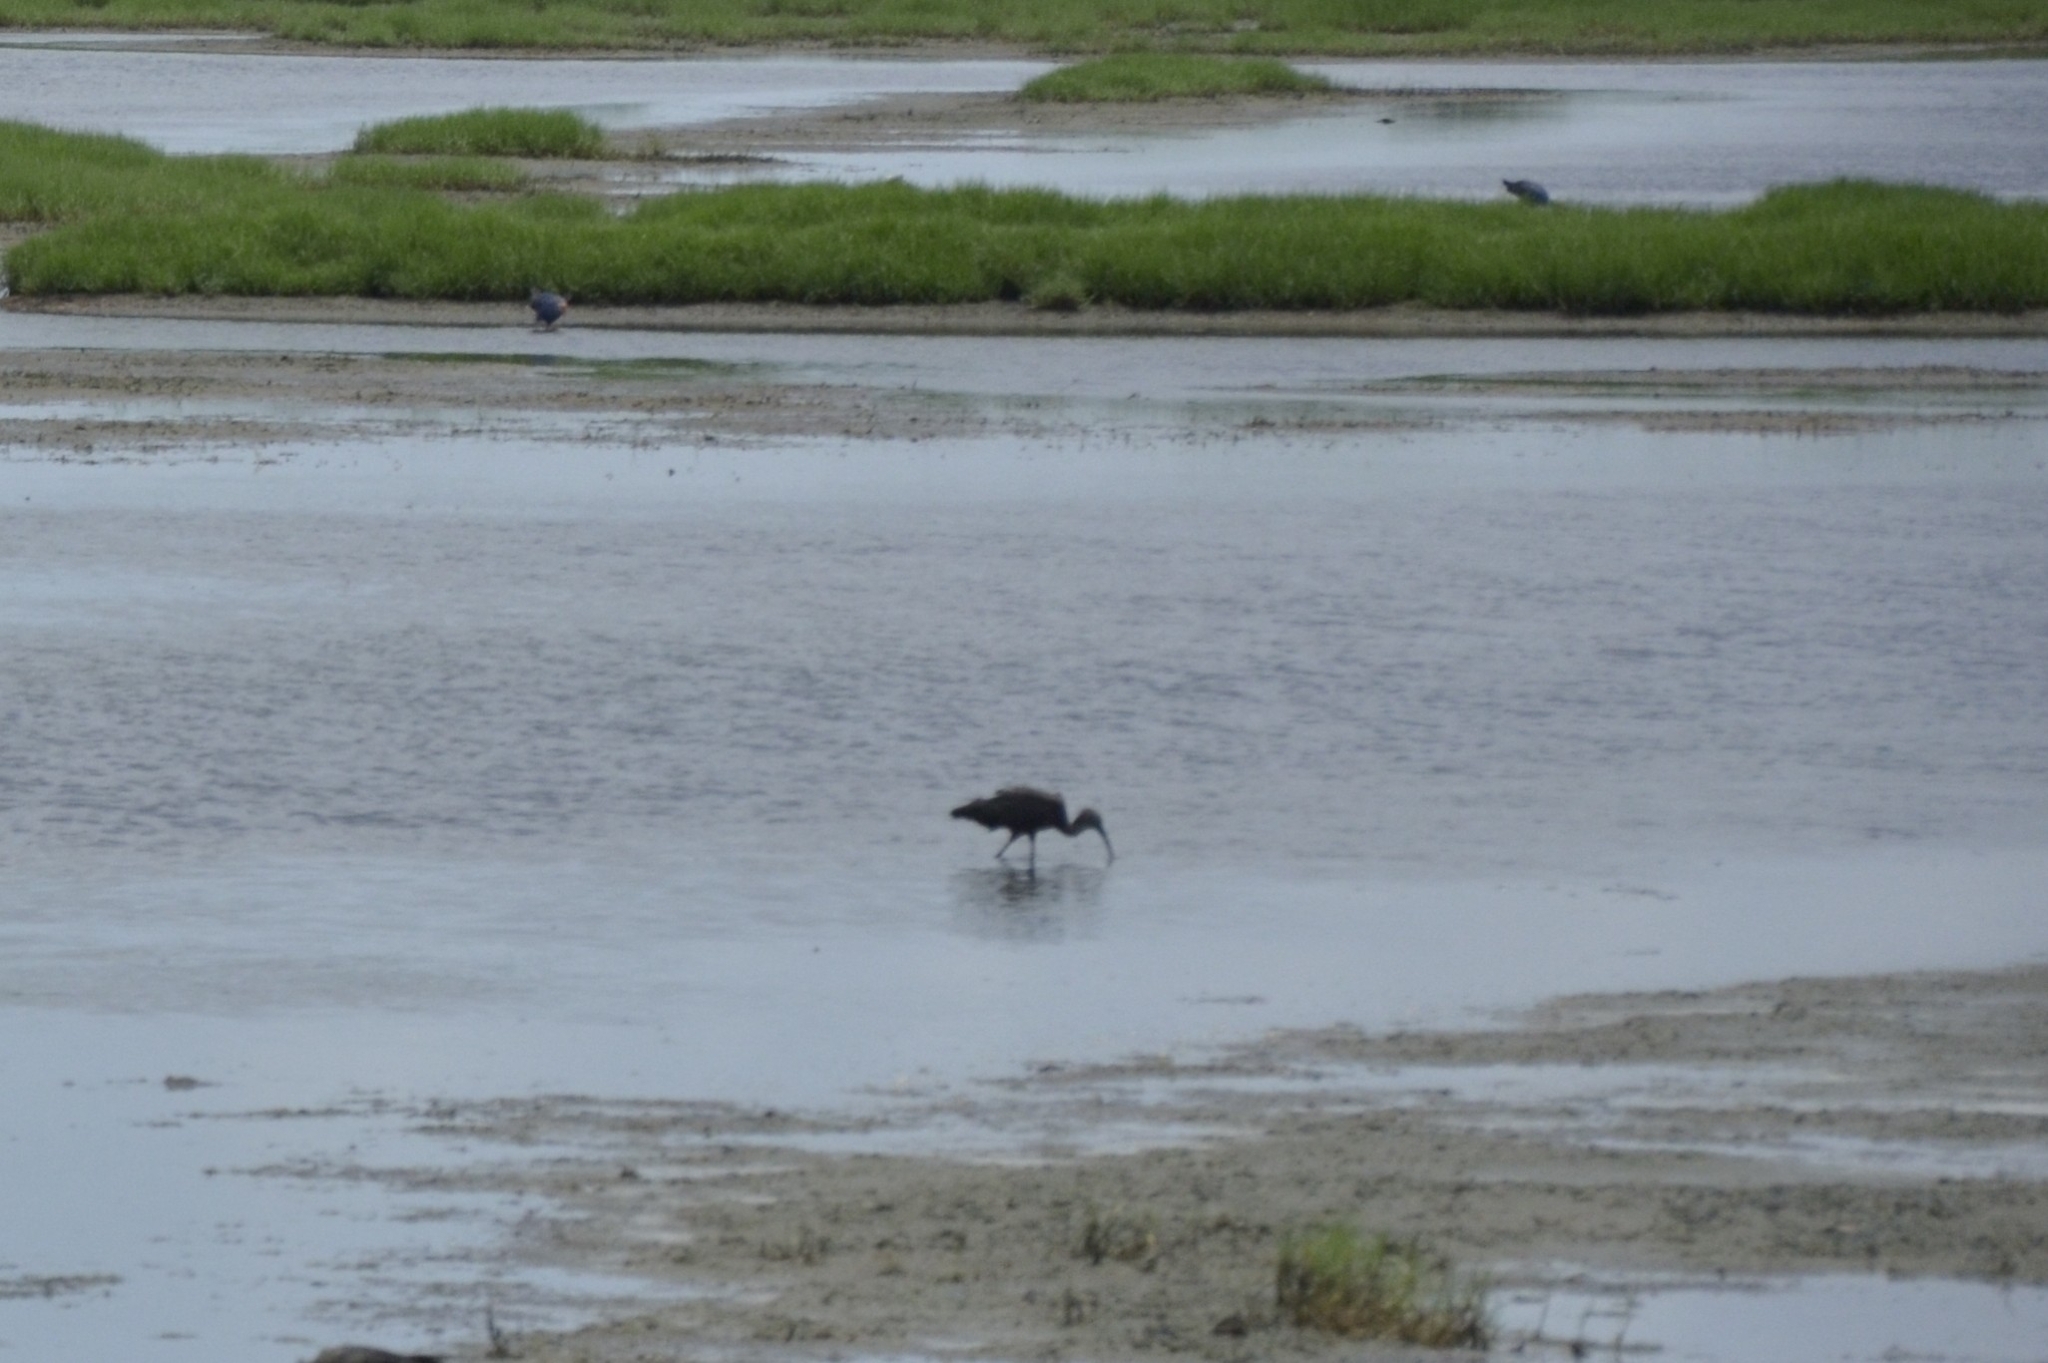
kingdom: Animalia
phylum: Chordata
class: Aves
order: Pelecaniformes
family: Threskiornithidae
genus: Plegadis
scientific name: Plegadis falcinellus
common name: Glossy ibis
